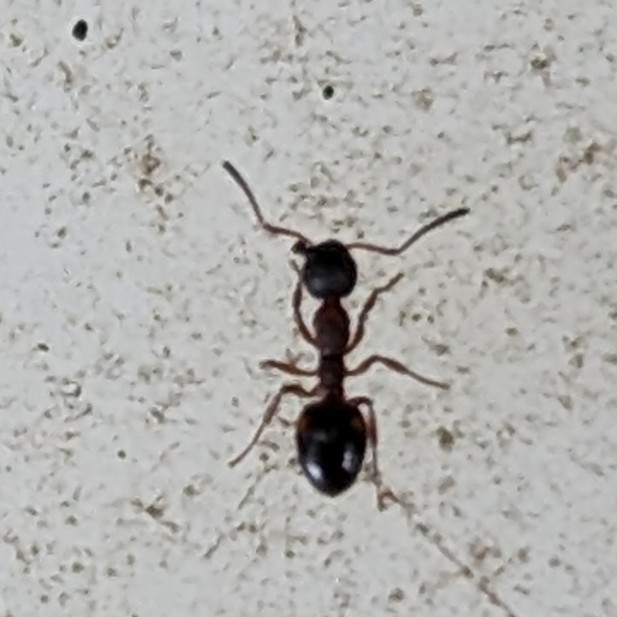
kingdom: Animalia
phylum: Arthropoda
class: Insecta
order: Hymenoptera
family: Formicidae
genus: Dolichoderus
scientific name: Dolichoderus plagiatus
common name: Mottled dolichoderus
